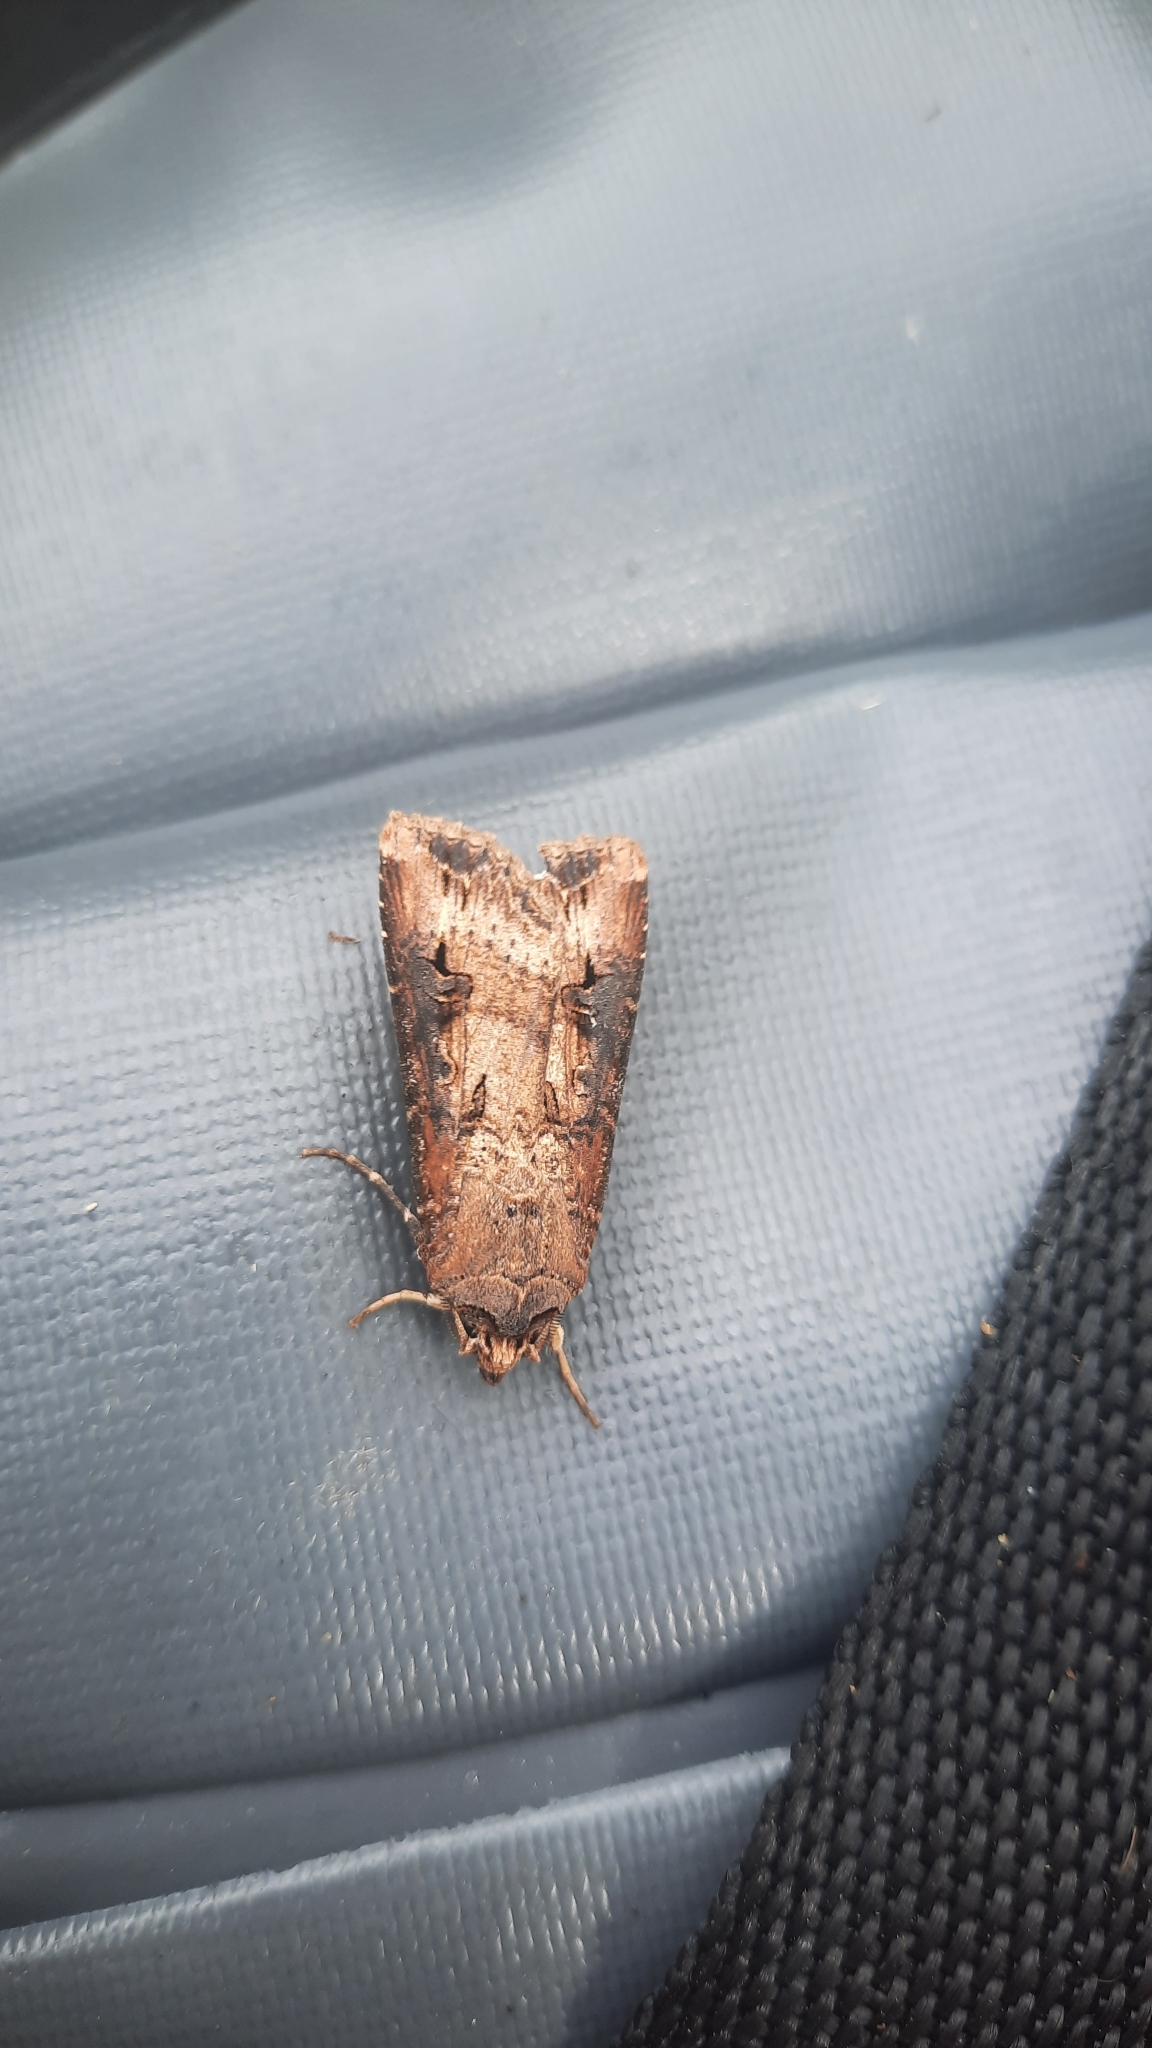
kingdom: Animalia
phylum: Arthropoda
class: Insecta
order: Lepidoptera
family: Noctuidae
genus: Agrotis
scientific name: Agrotis ipsilon
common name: Dark sword-grass
